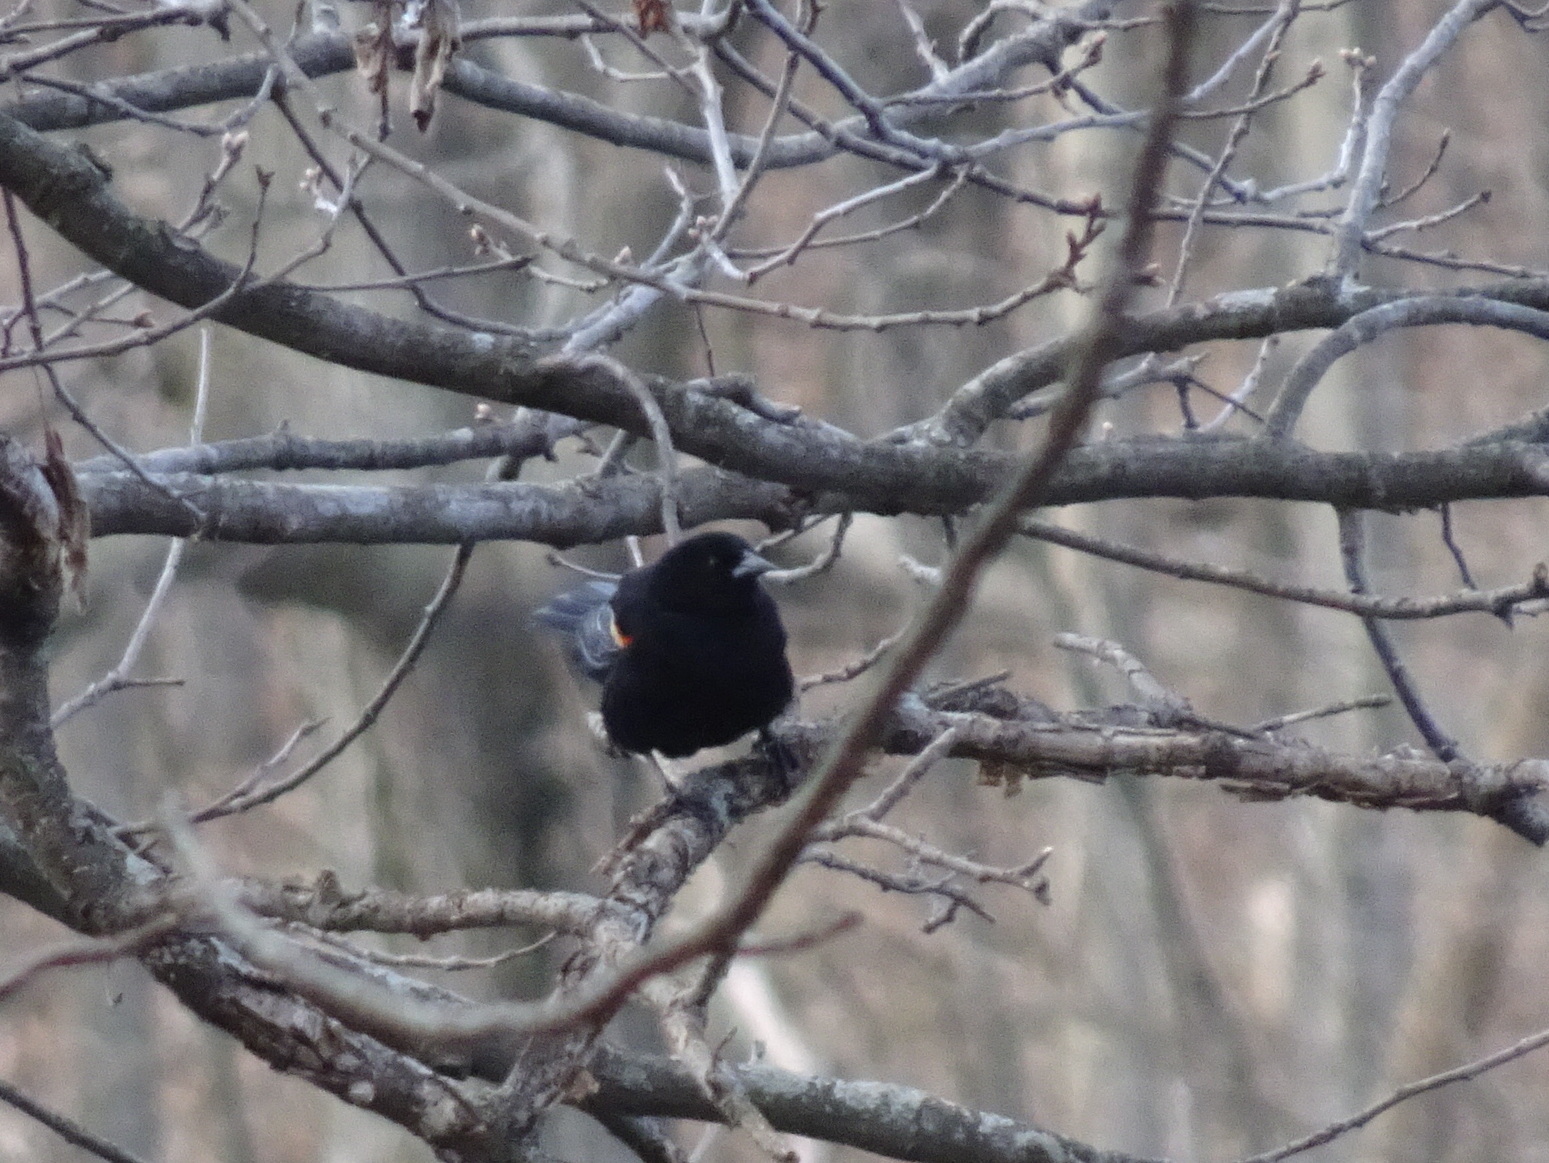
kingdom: Animalia
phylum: Chordata
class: Aves
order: Passeriformes
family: Icteridae
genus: Agelaius
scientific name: Agelaius phoeniceus
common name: Red-winged blackbird
